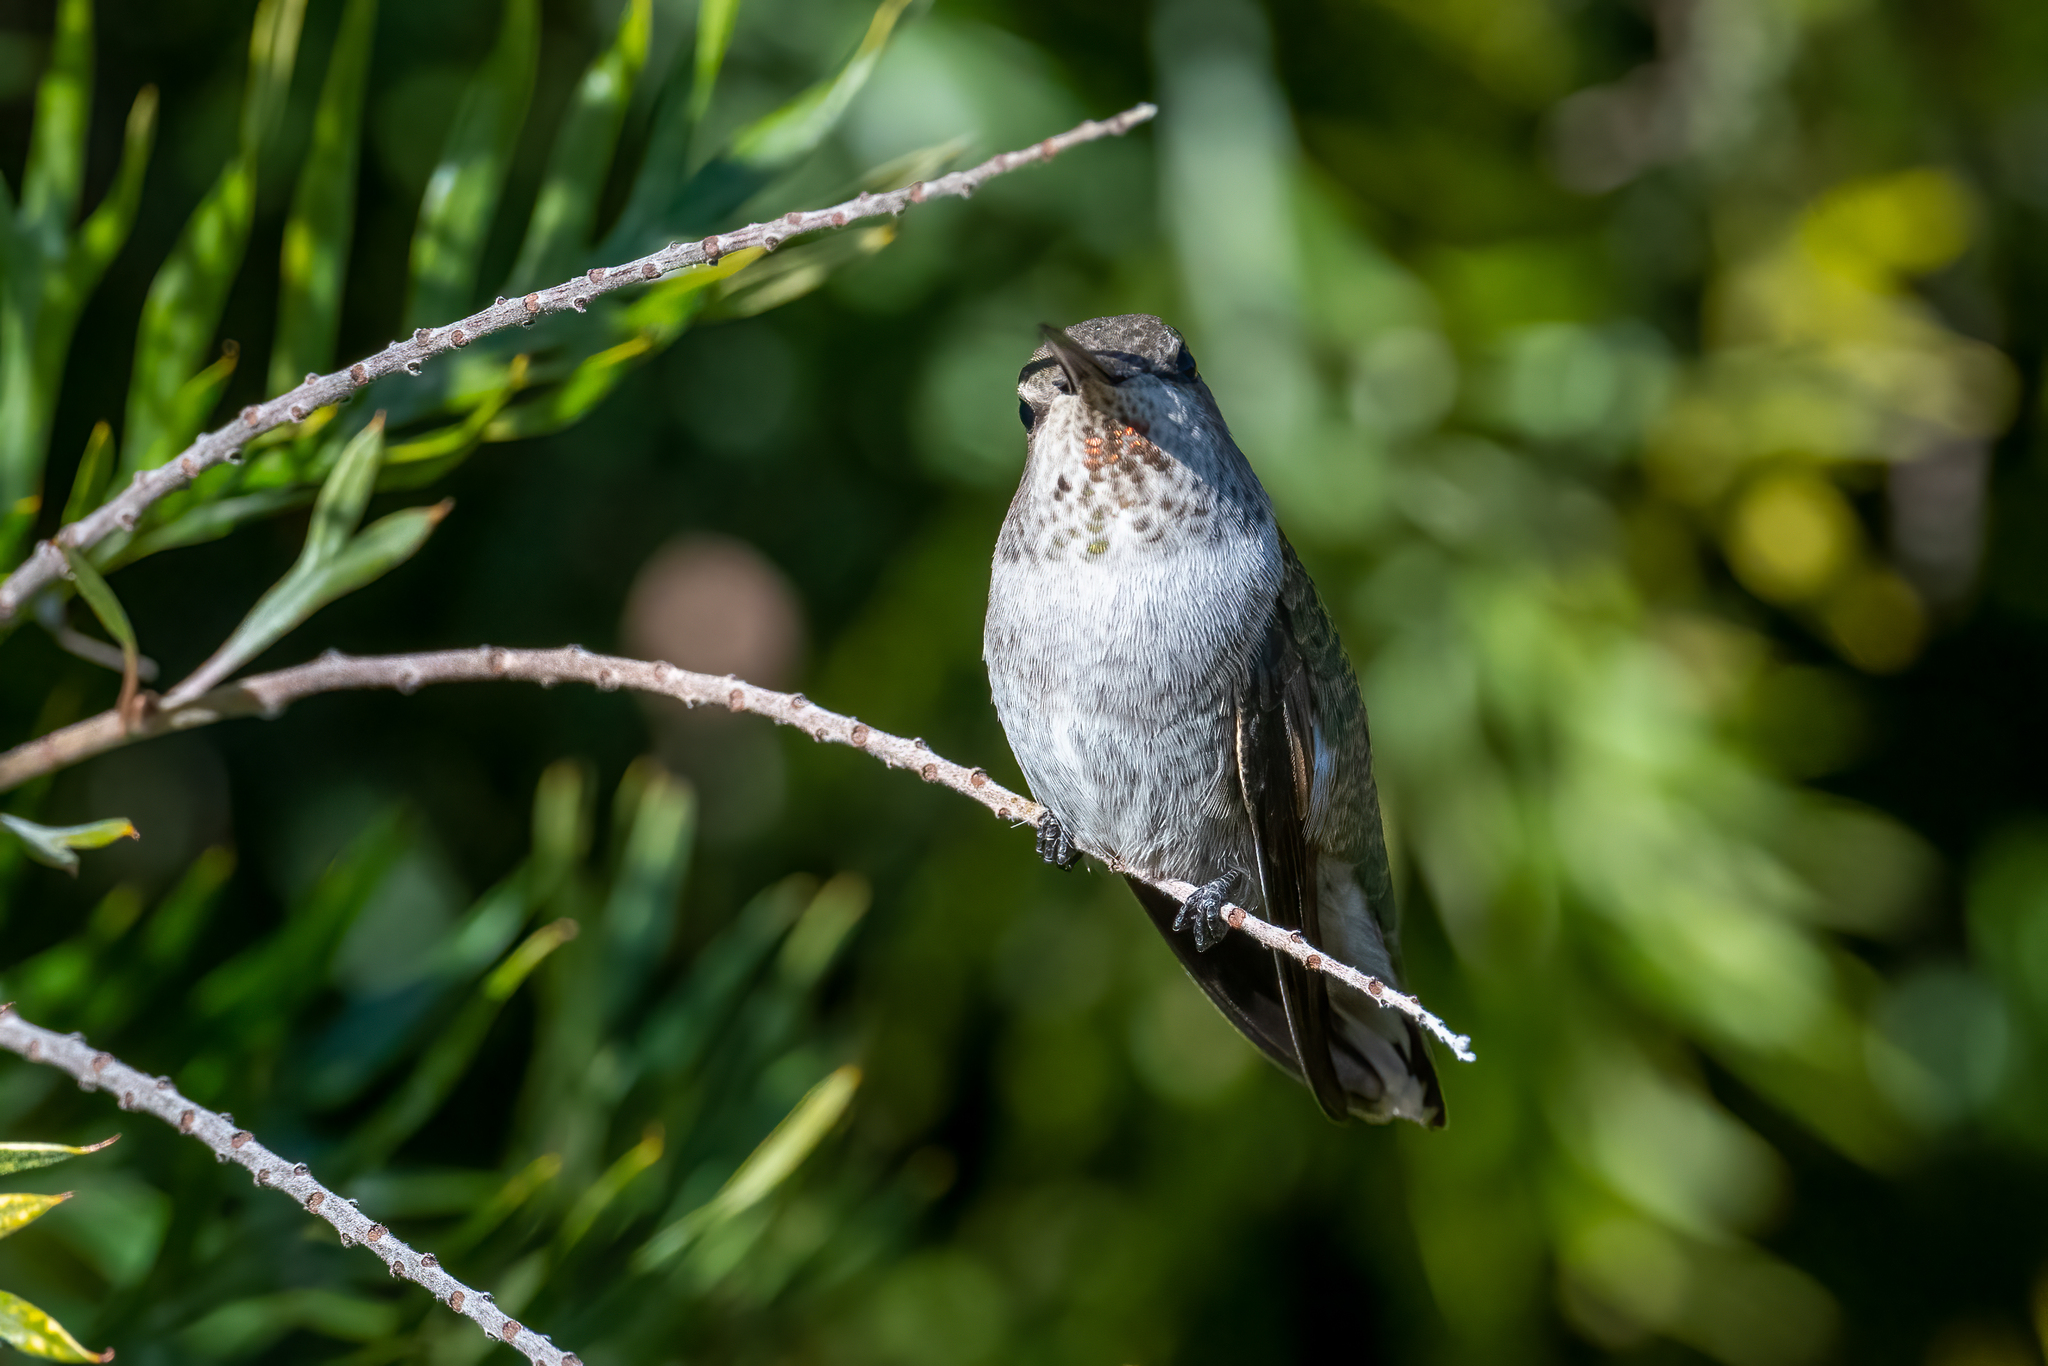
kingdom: Animalia
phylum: Chordata
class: Aves
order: Apodiformes
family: Trochilidae
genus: Calypte
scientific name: Calypte anna
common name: Anna's hummingbird
